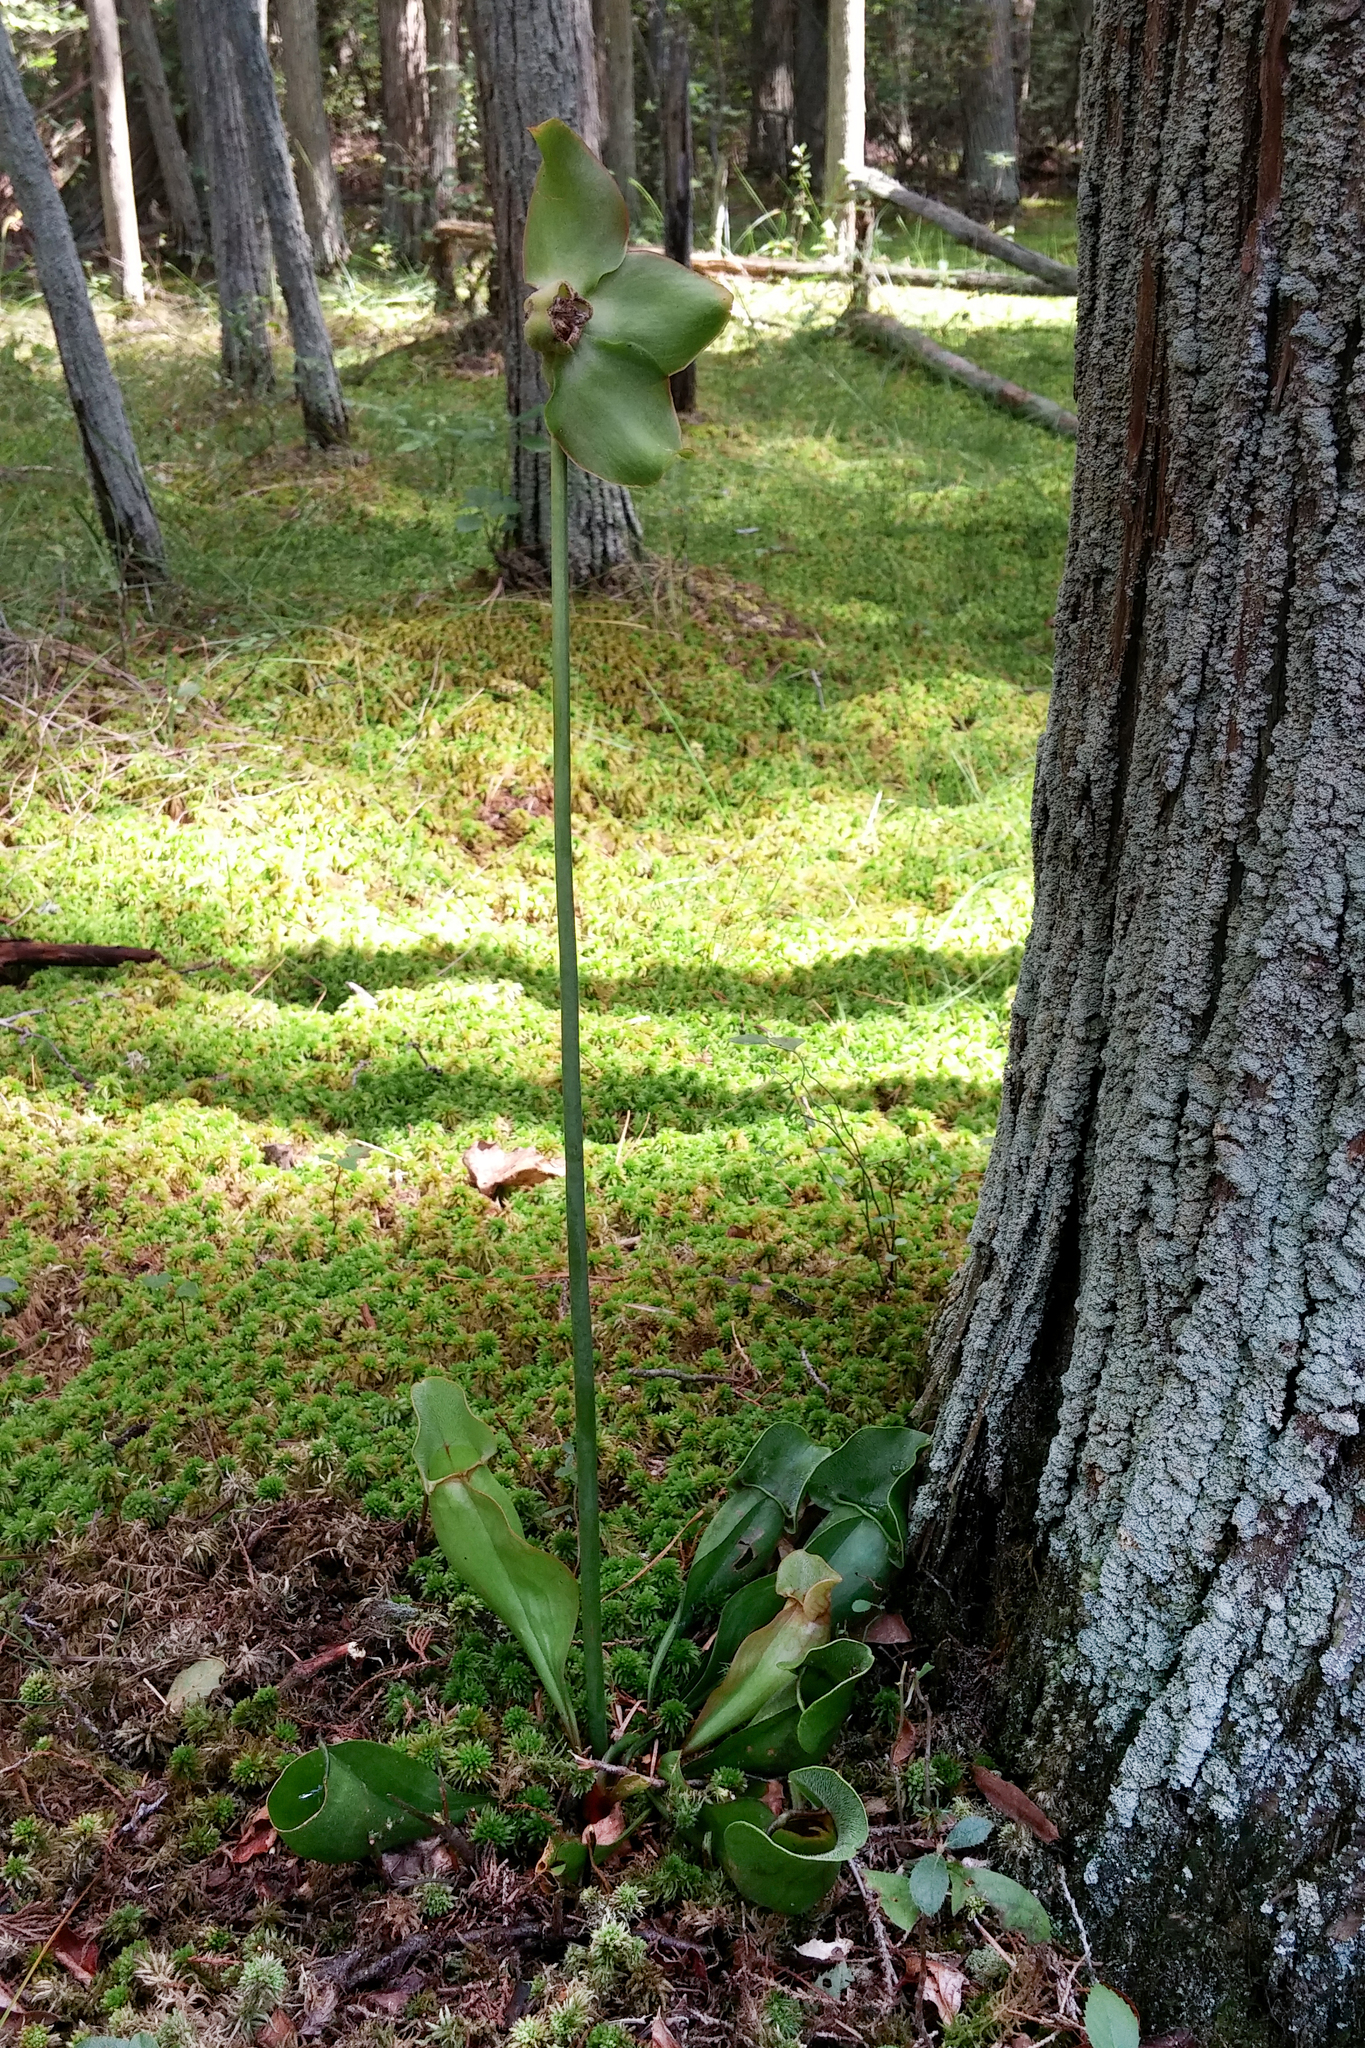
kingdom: Plantae
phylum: Tracheophyta
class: Magnoliopsida
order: Ericales
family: Sarraceniaceae
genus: Sarracenia
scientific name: Sarracenia purpurea
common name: Pitcherplant
